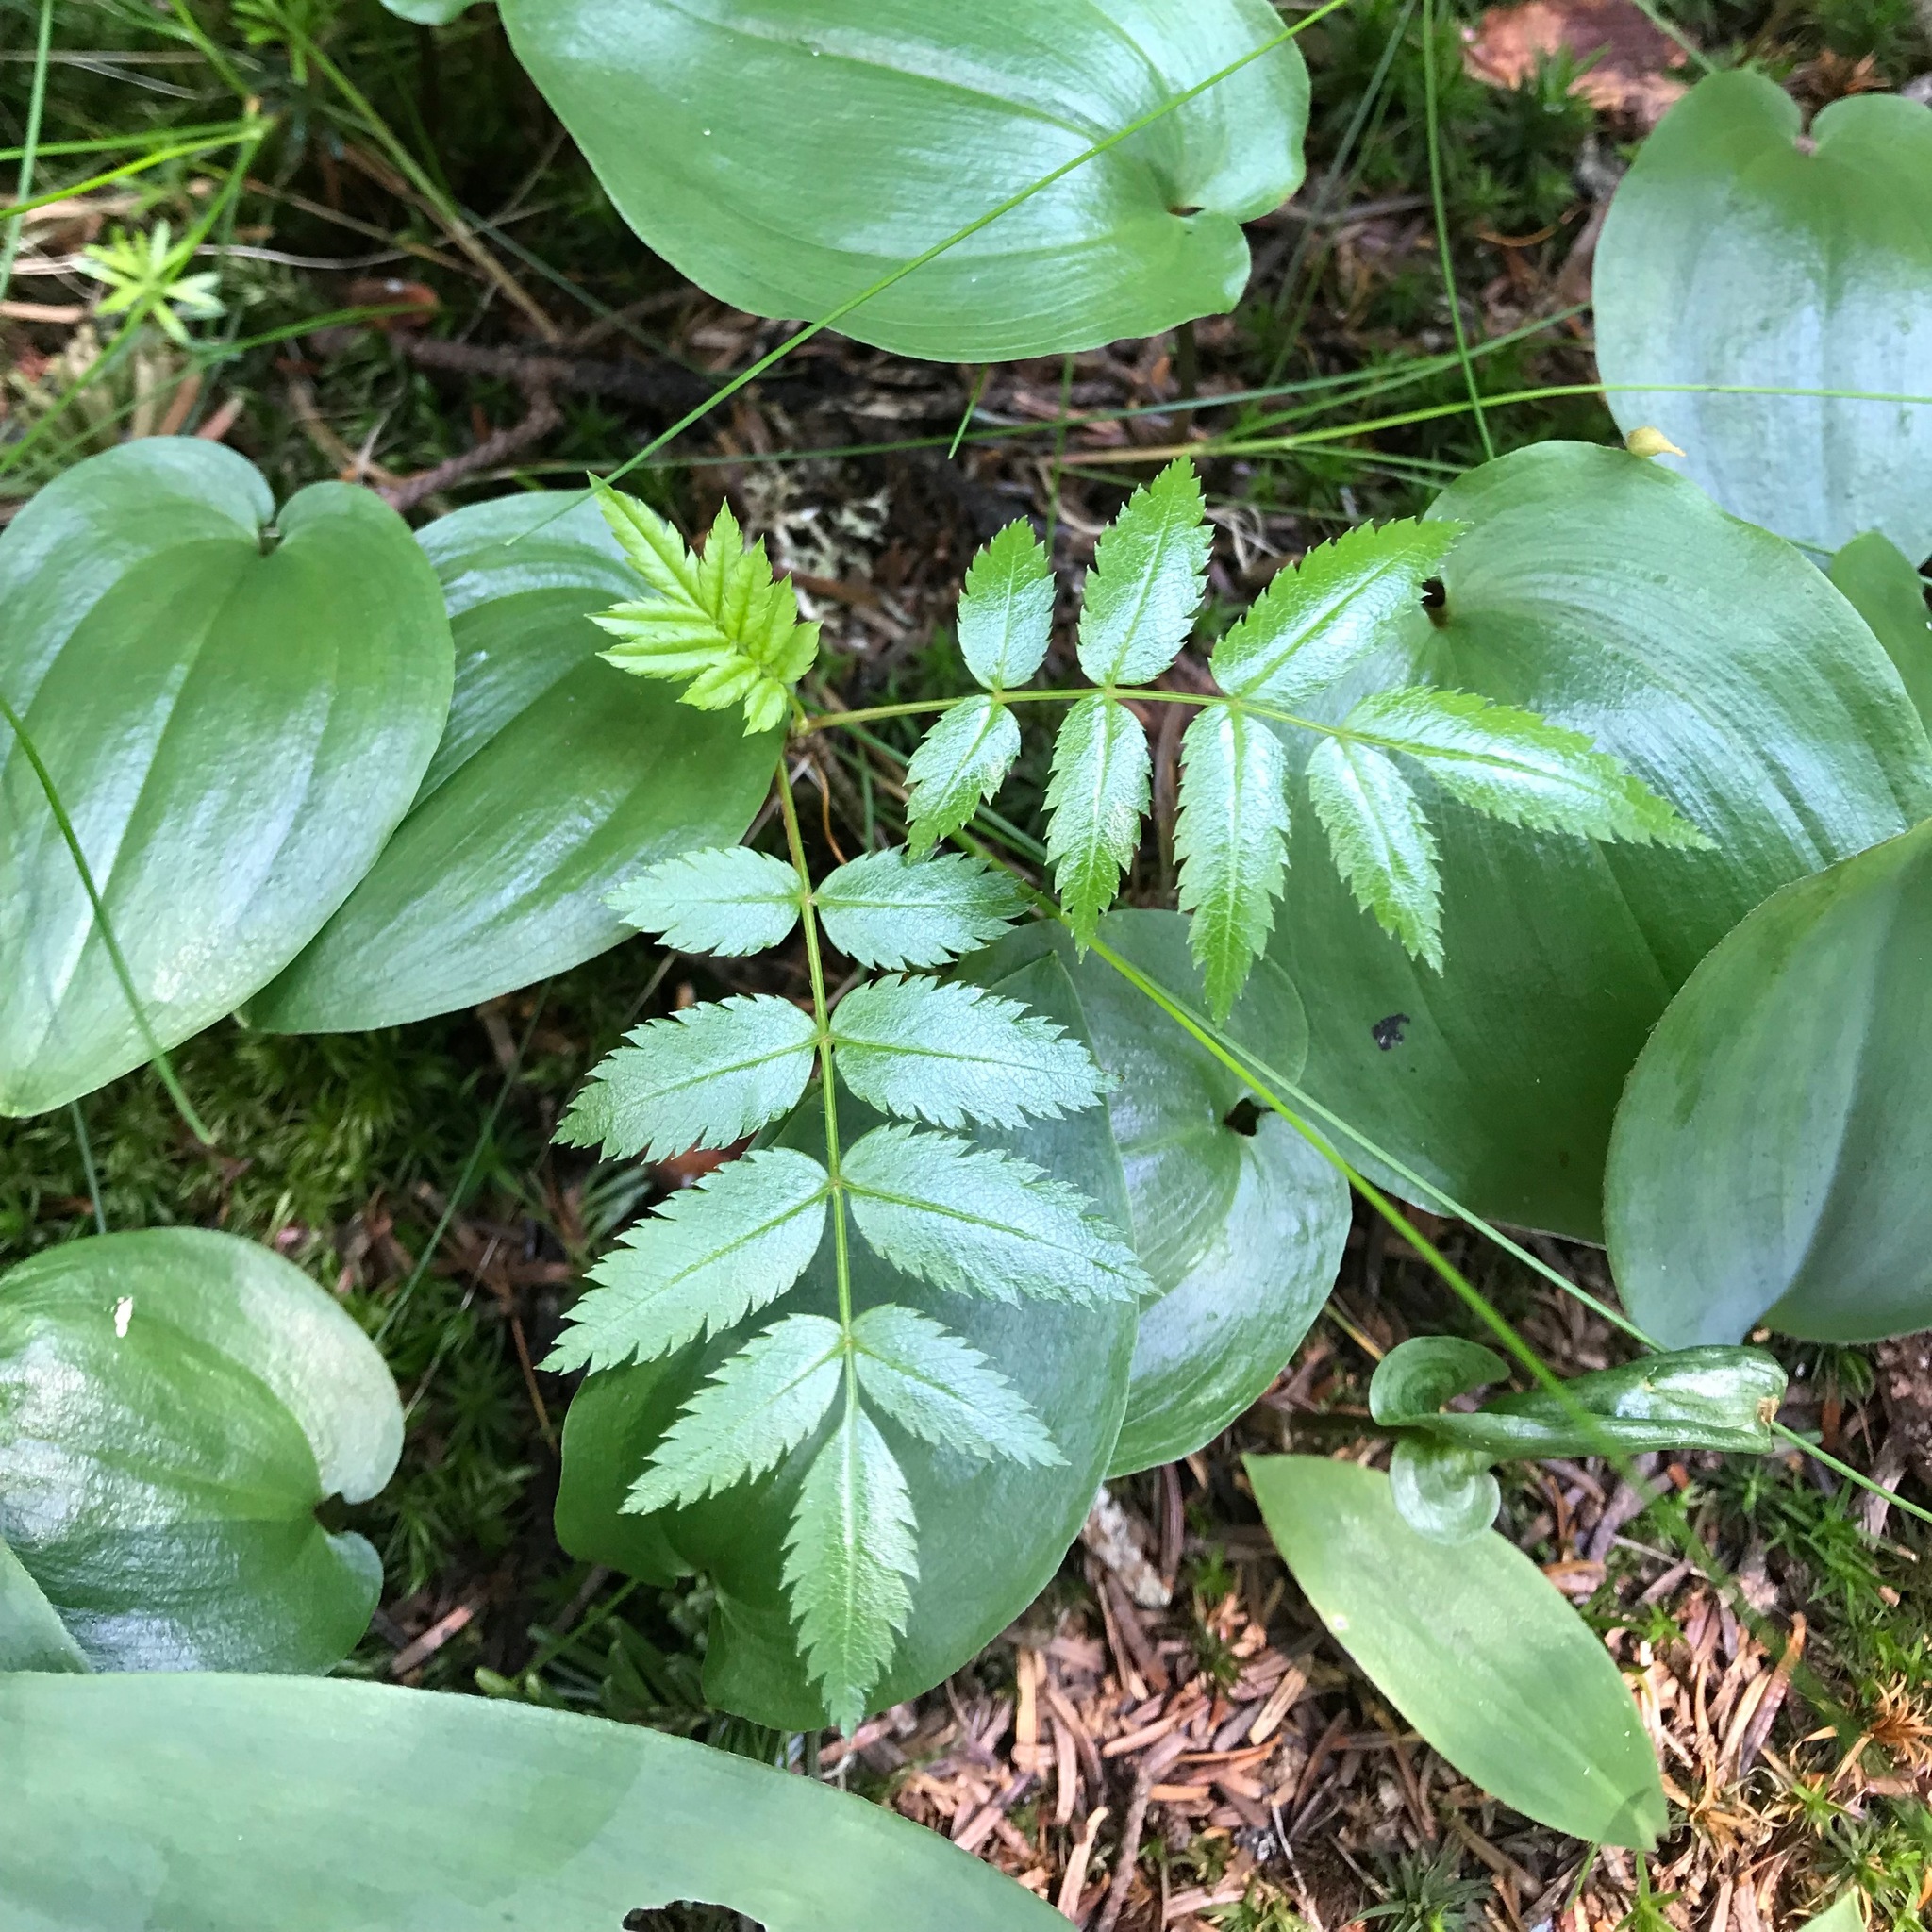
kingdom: Plantae
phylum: Tracheophyta
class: Magnoliopsida
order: Rosales
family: Rosaceae
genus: Sorbus
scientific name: Sorbus americana
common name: American mountain-ash
